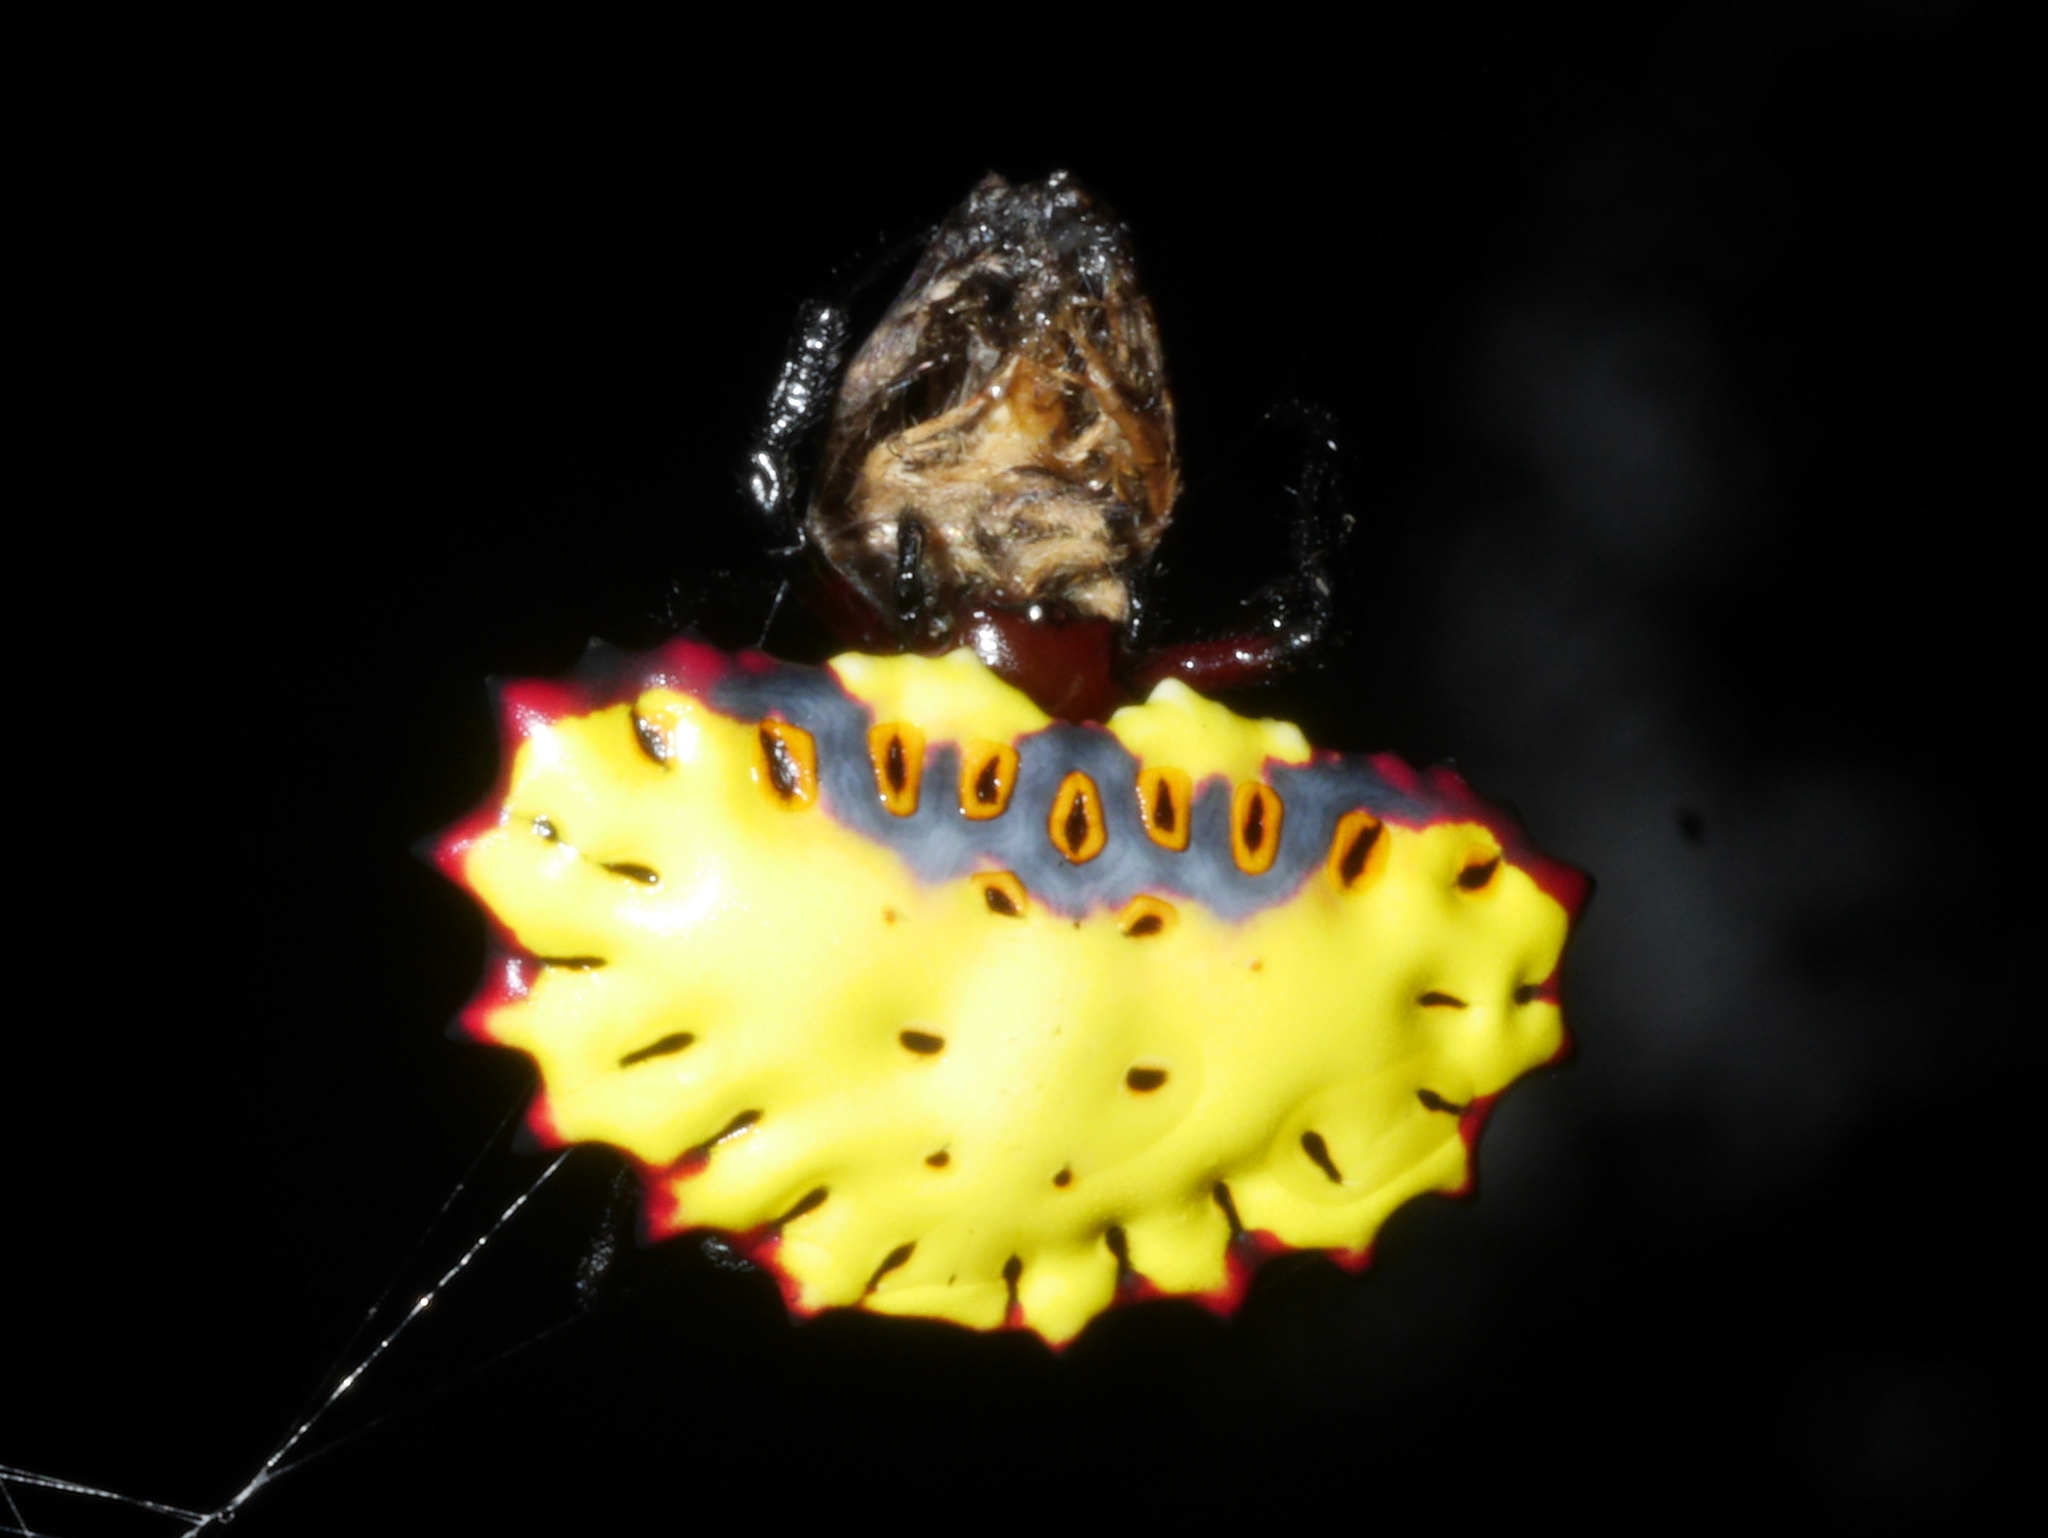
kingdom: Animalia
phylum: Arthropoda
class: Arachnida
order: Araneae
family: Araneidae
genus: Aranoethra
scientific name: Aranoethra cambridgei
